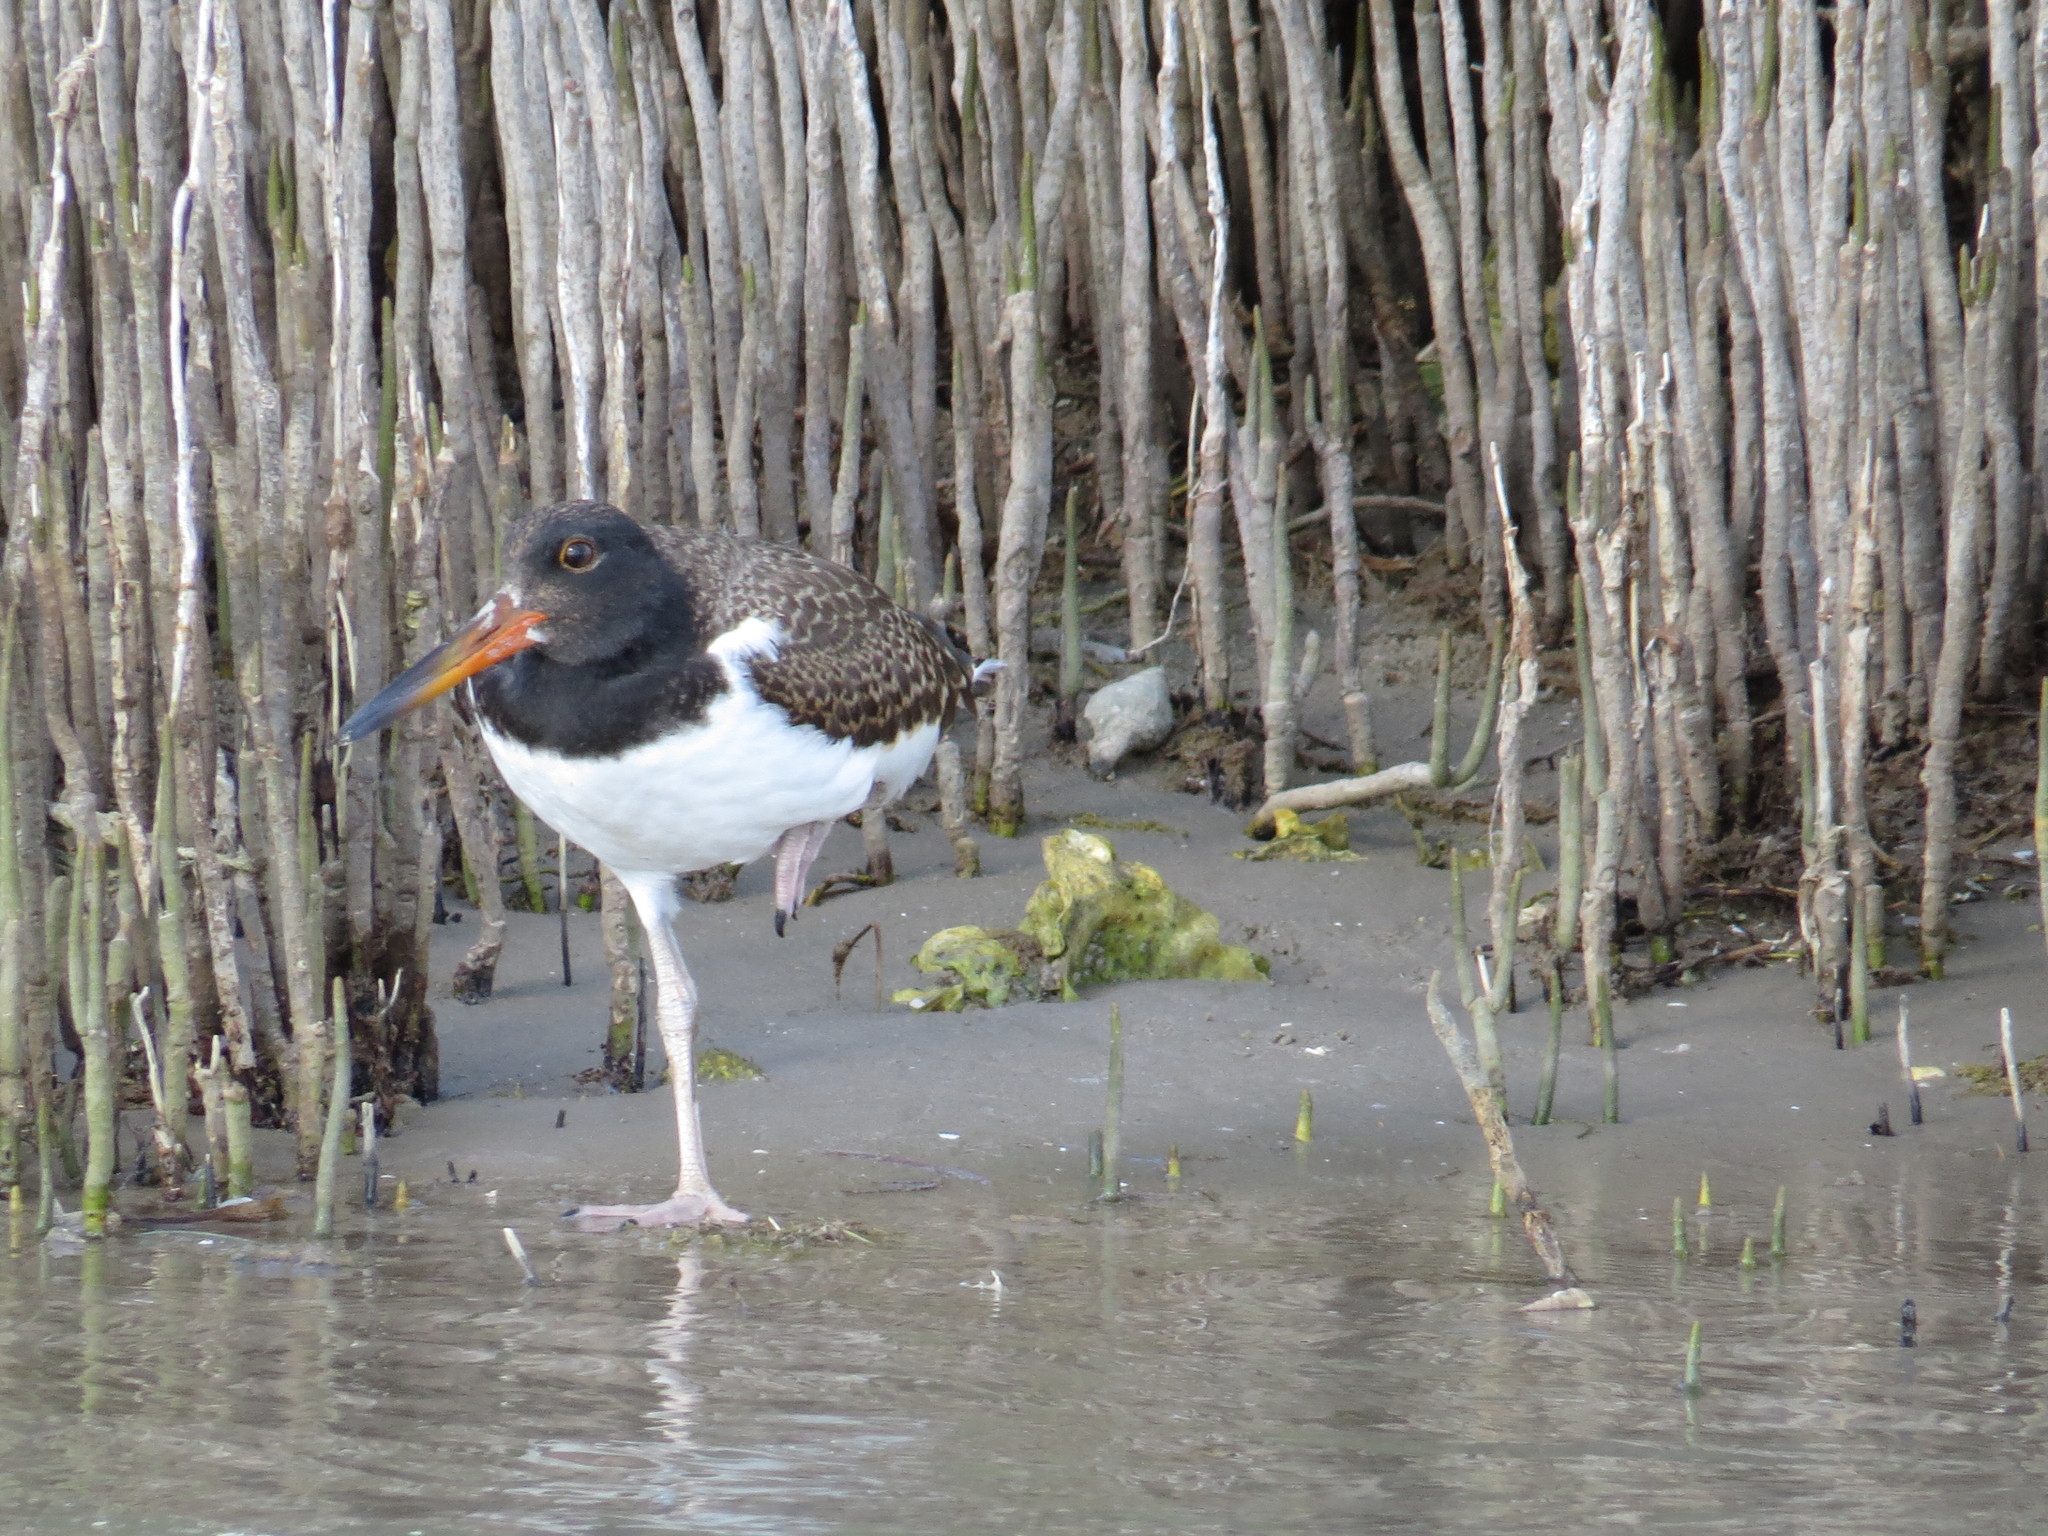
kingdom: Animalia
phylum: Chordata
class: Aves
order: Charadriiformes
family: Haematopodidae
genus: Haematopus
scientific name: Haematopus palliatus
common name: American oystercatcher
